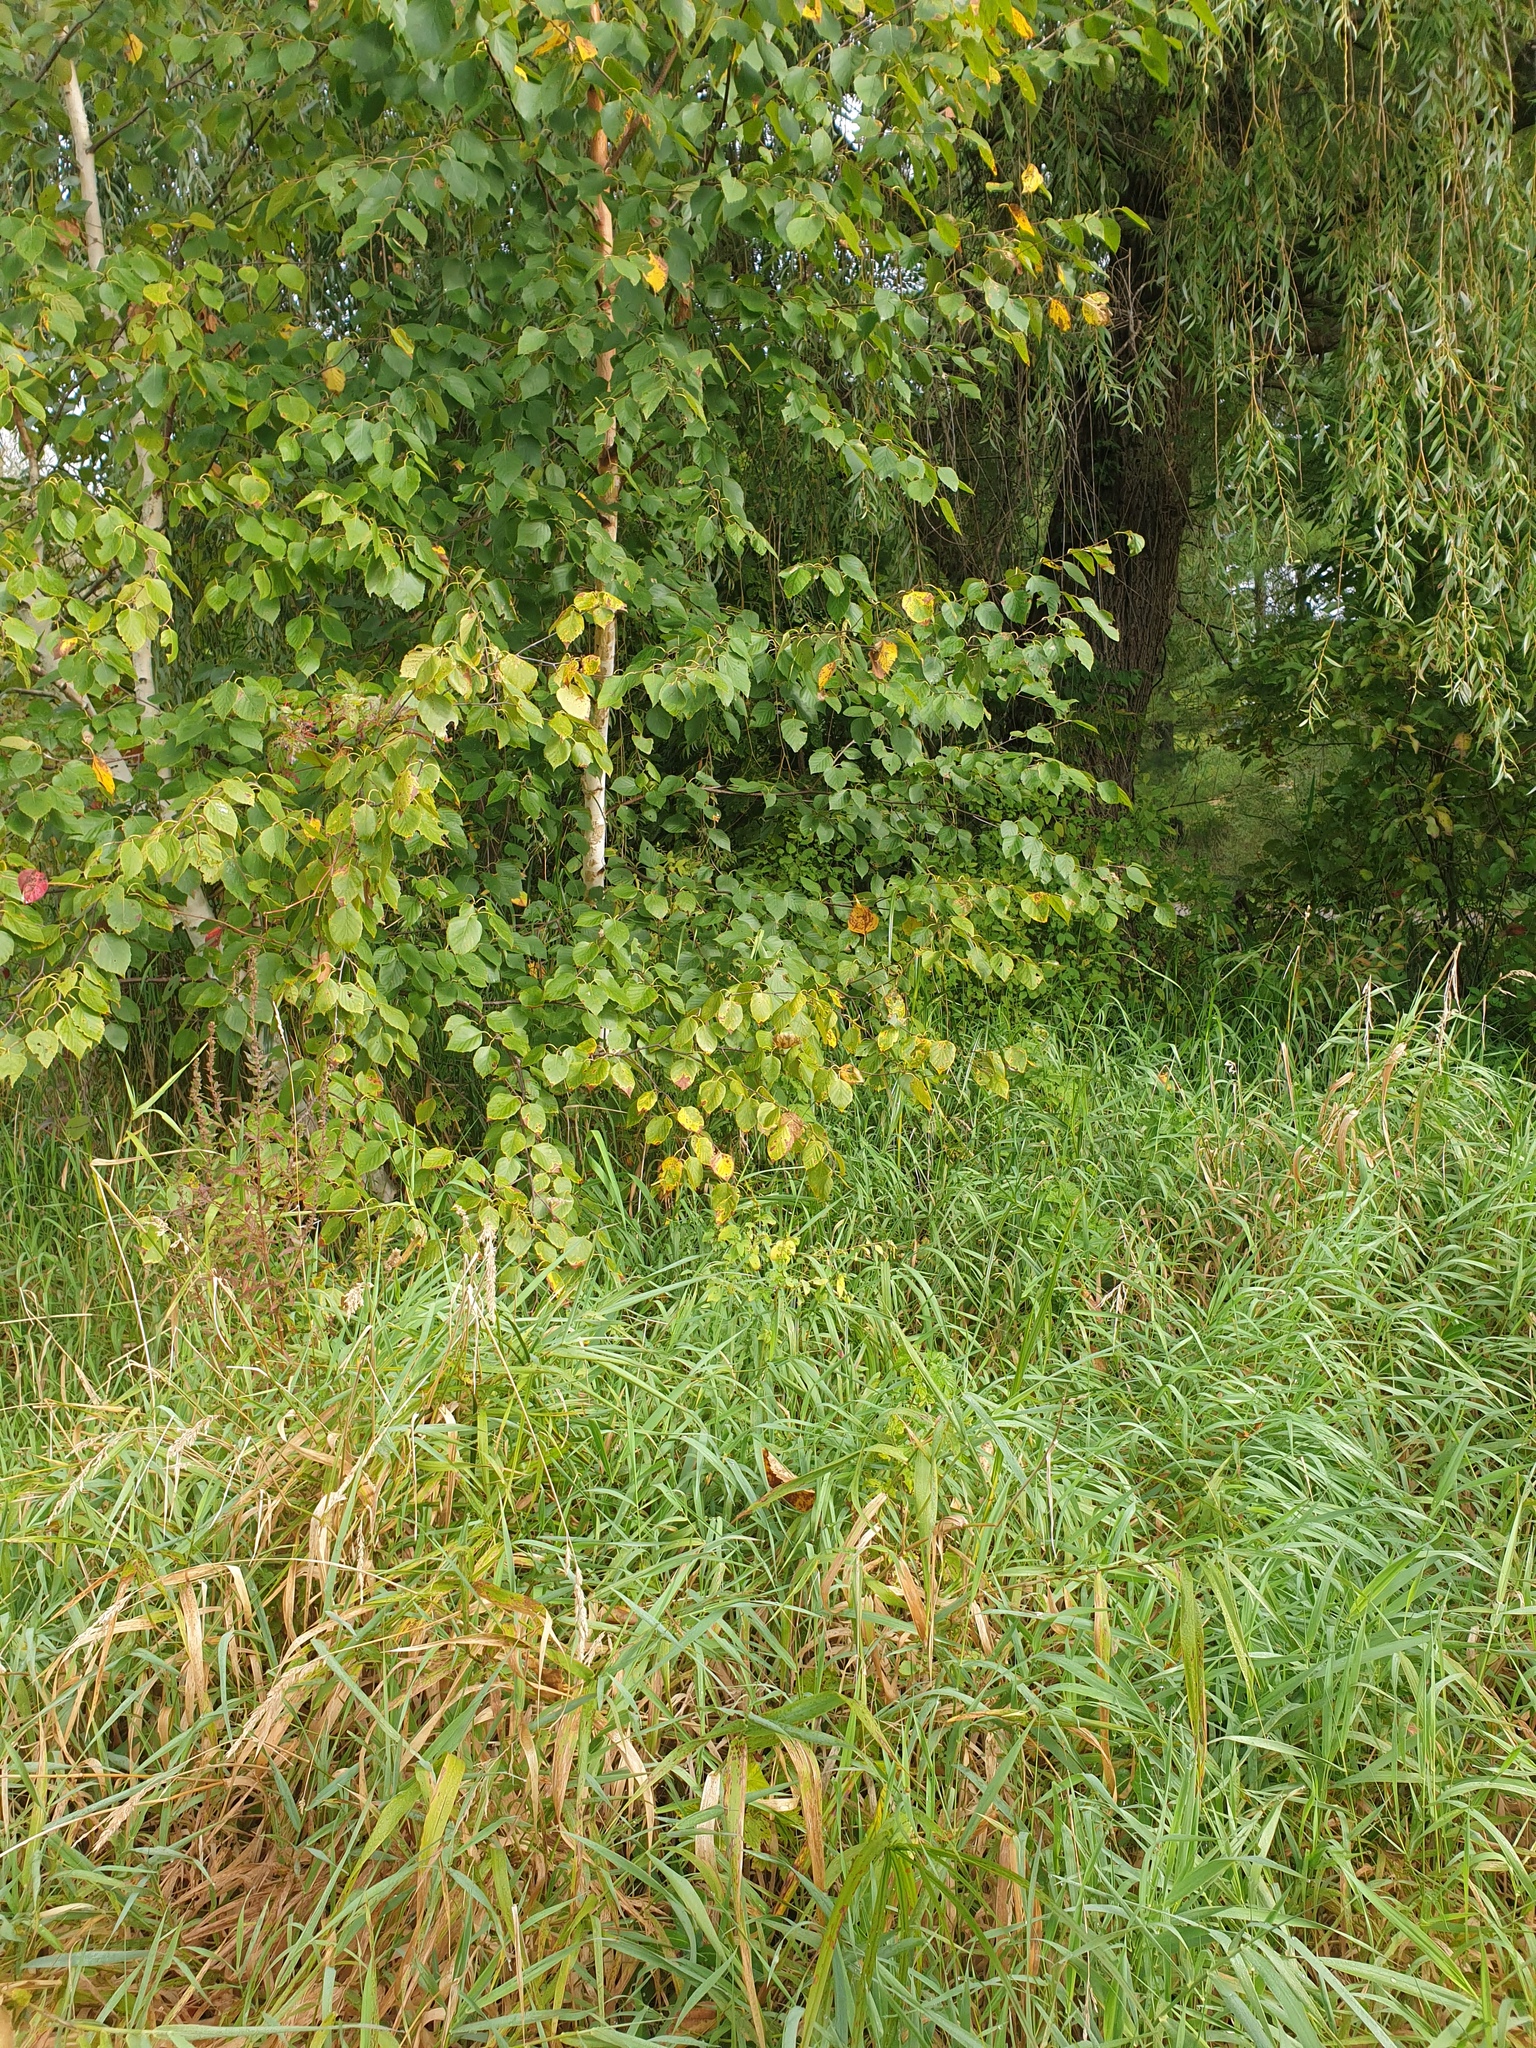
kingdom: Plantae
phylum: Tracheophyta
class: Magnoliopsida
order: Fagales
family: Betulaceae
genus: Betula
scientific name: Betula papyrifera
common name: Paper birch
